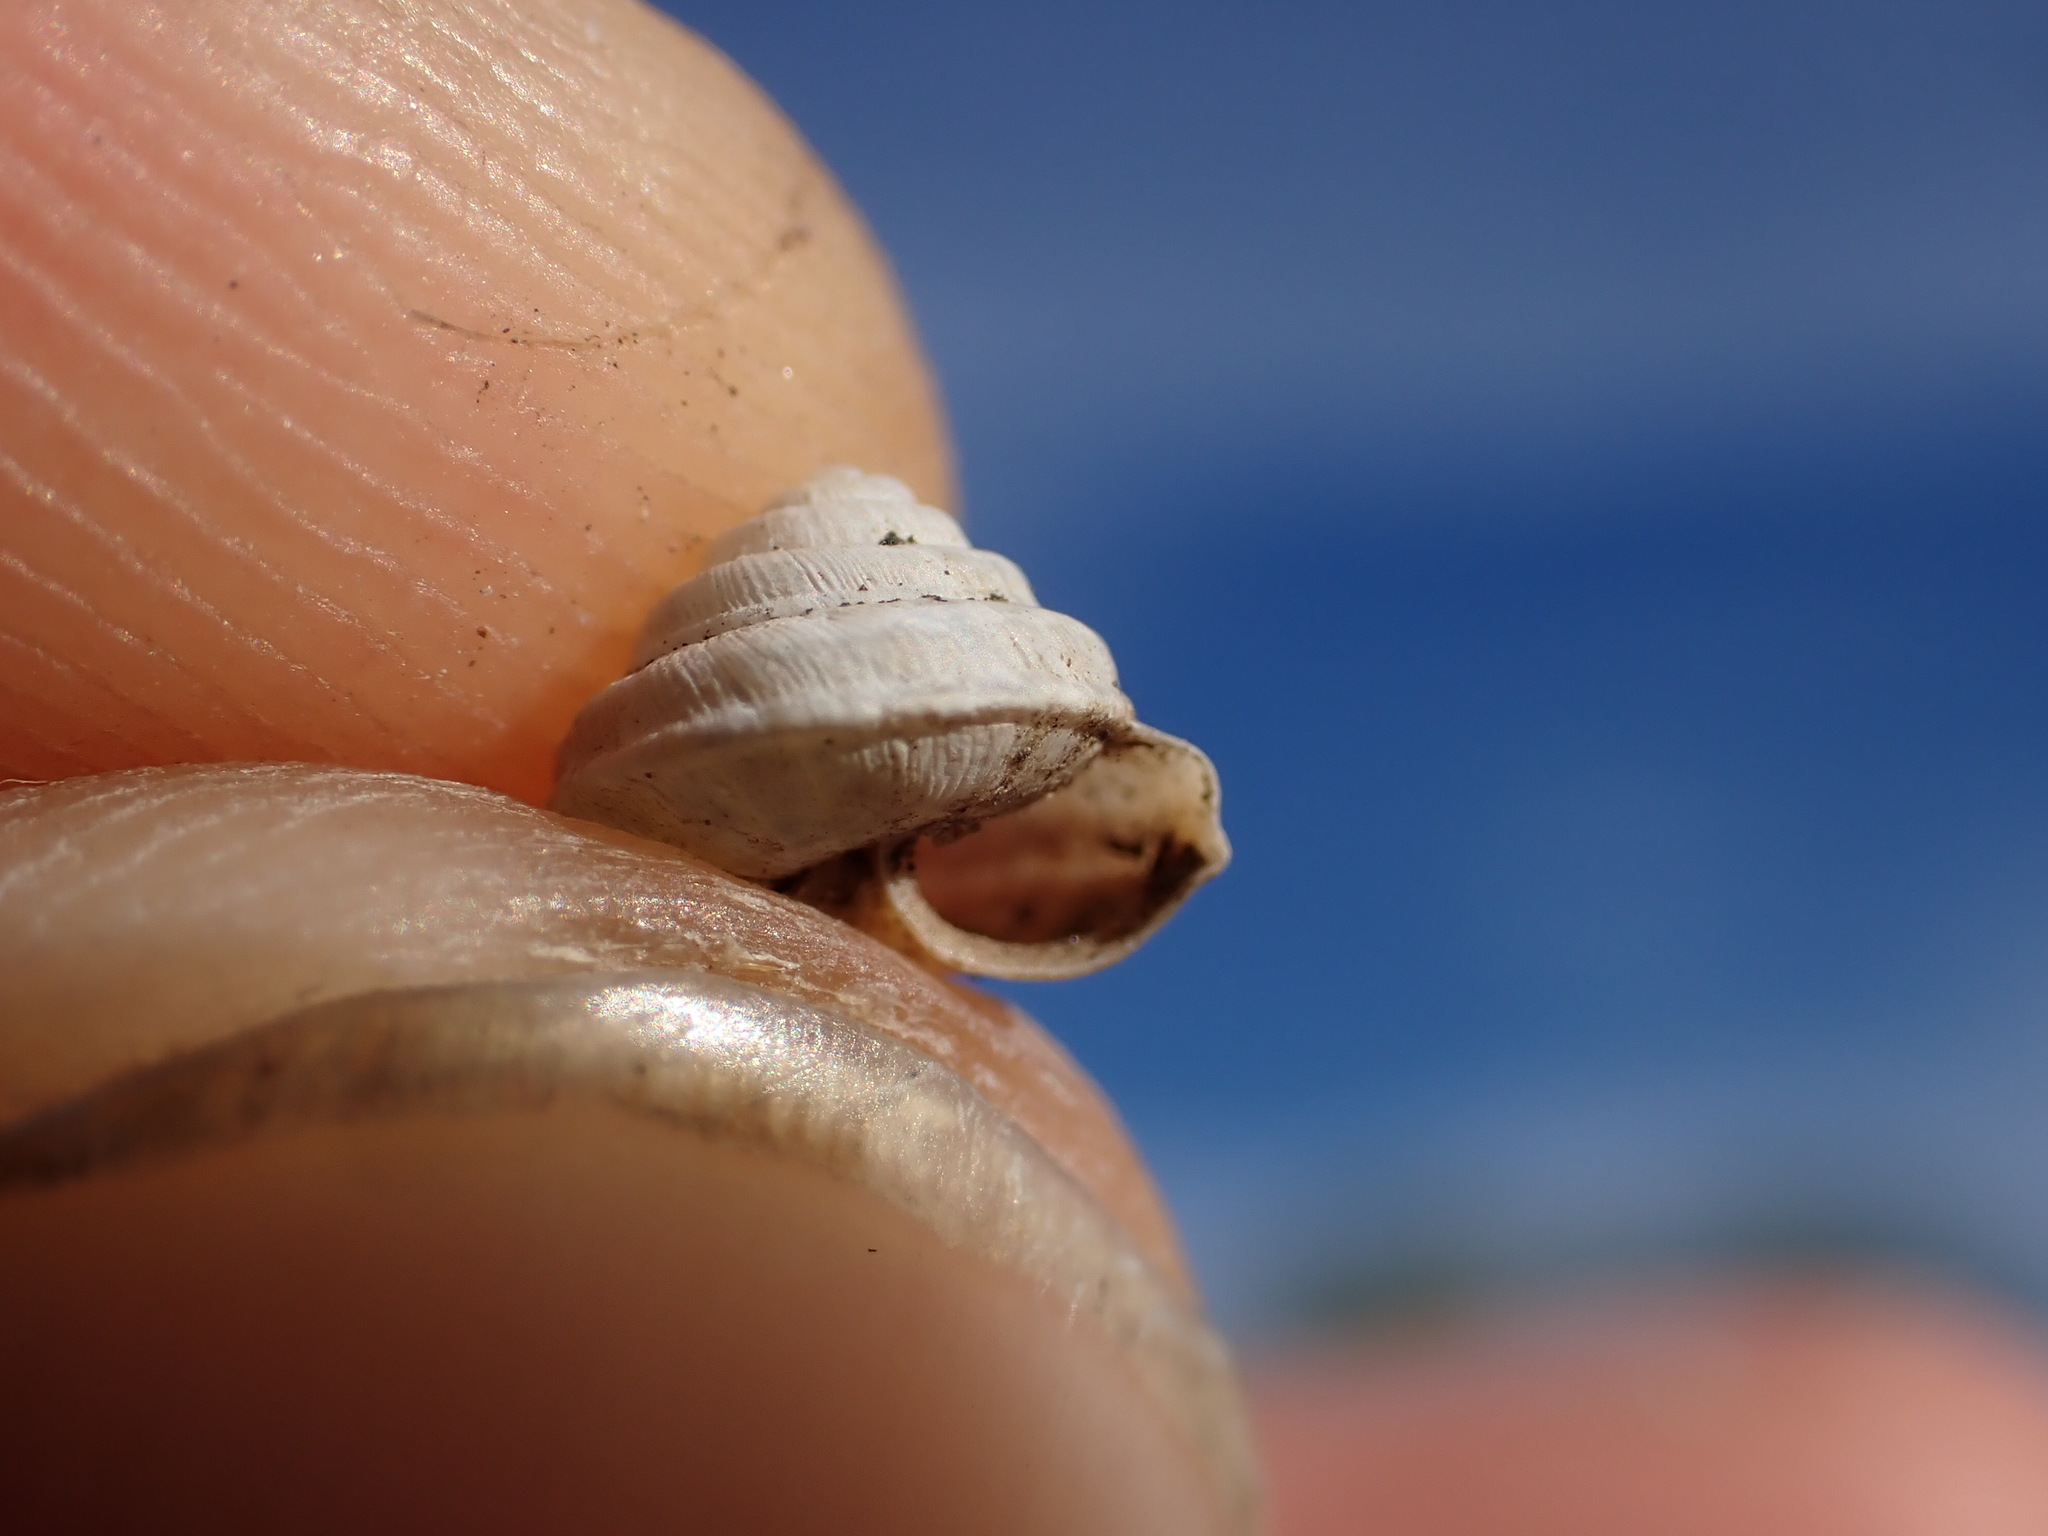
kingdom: Animalia
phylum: Mollusca
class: Gastropoda
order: Stylommatophora
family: Geomitridae
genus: Trochoidea
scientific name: Trochoidea trochoides
